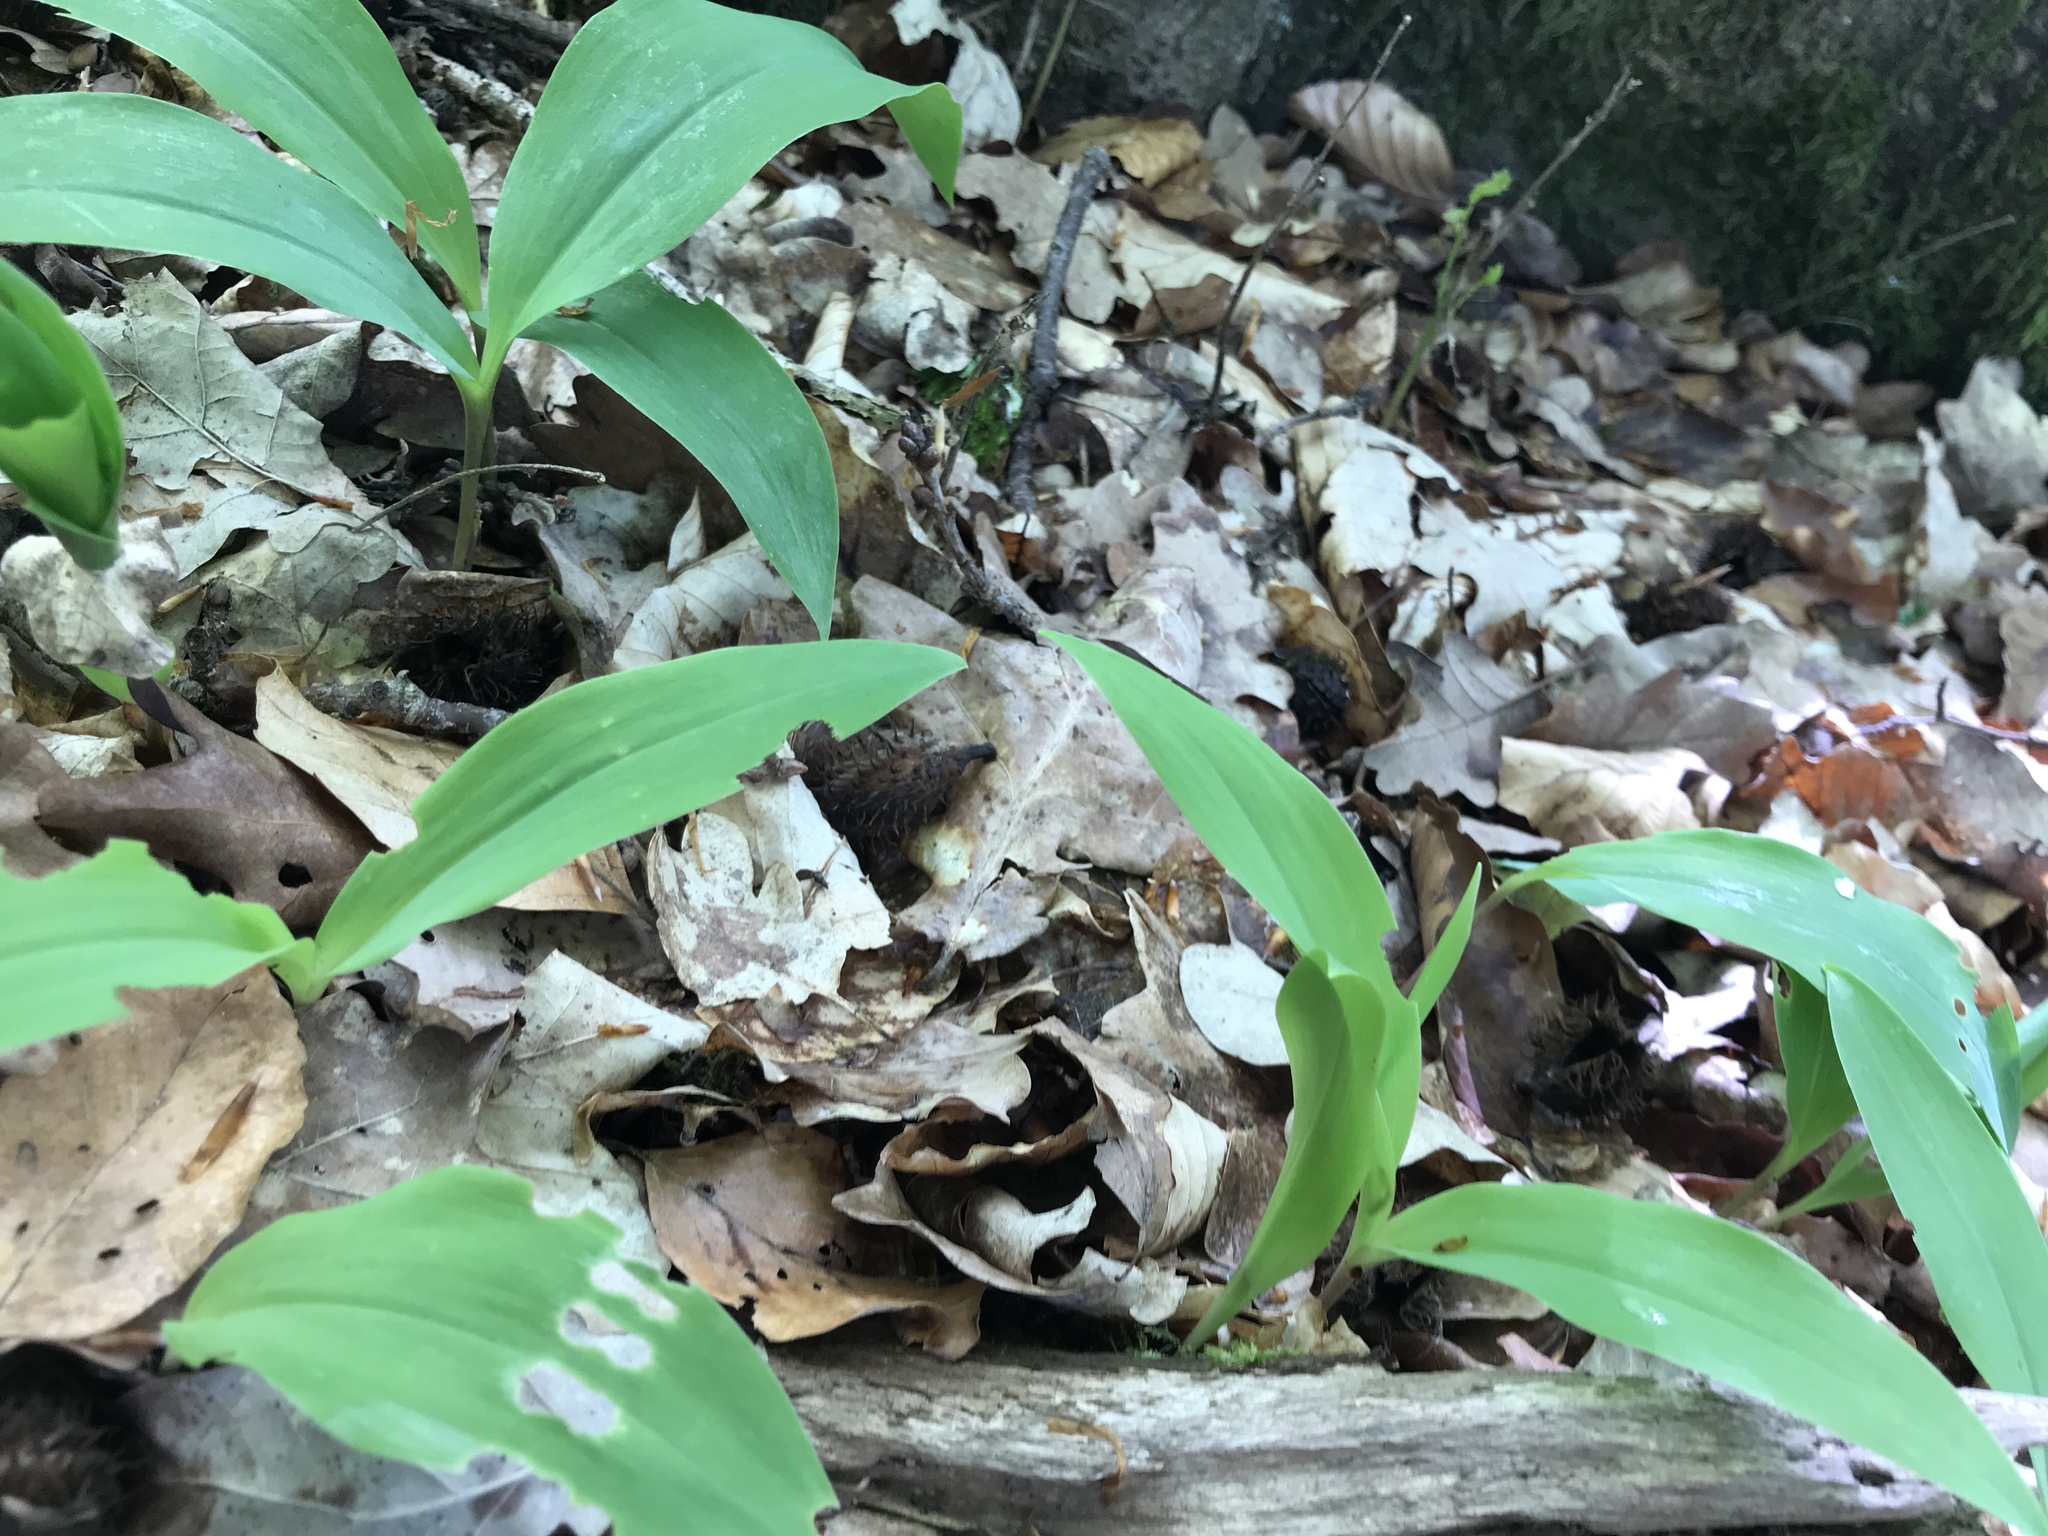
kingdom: Plantae
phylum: Tracheophyta
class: Liliopsida
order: Asparagales
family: Asparagaceae
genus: Convallaria
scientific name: Convallaria majalis
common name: Lily-of-the-valley
